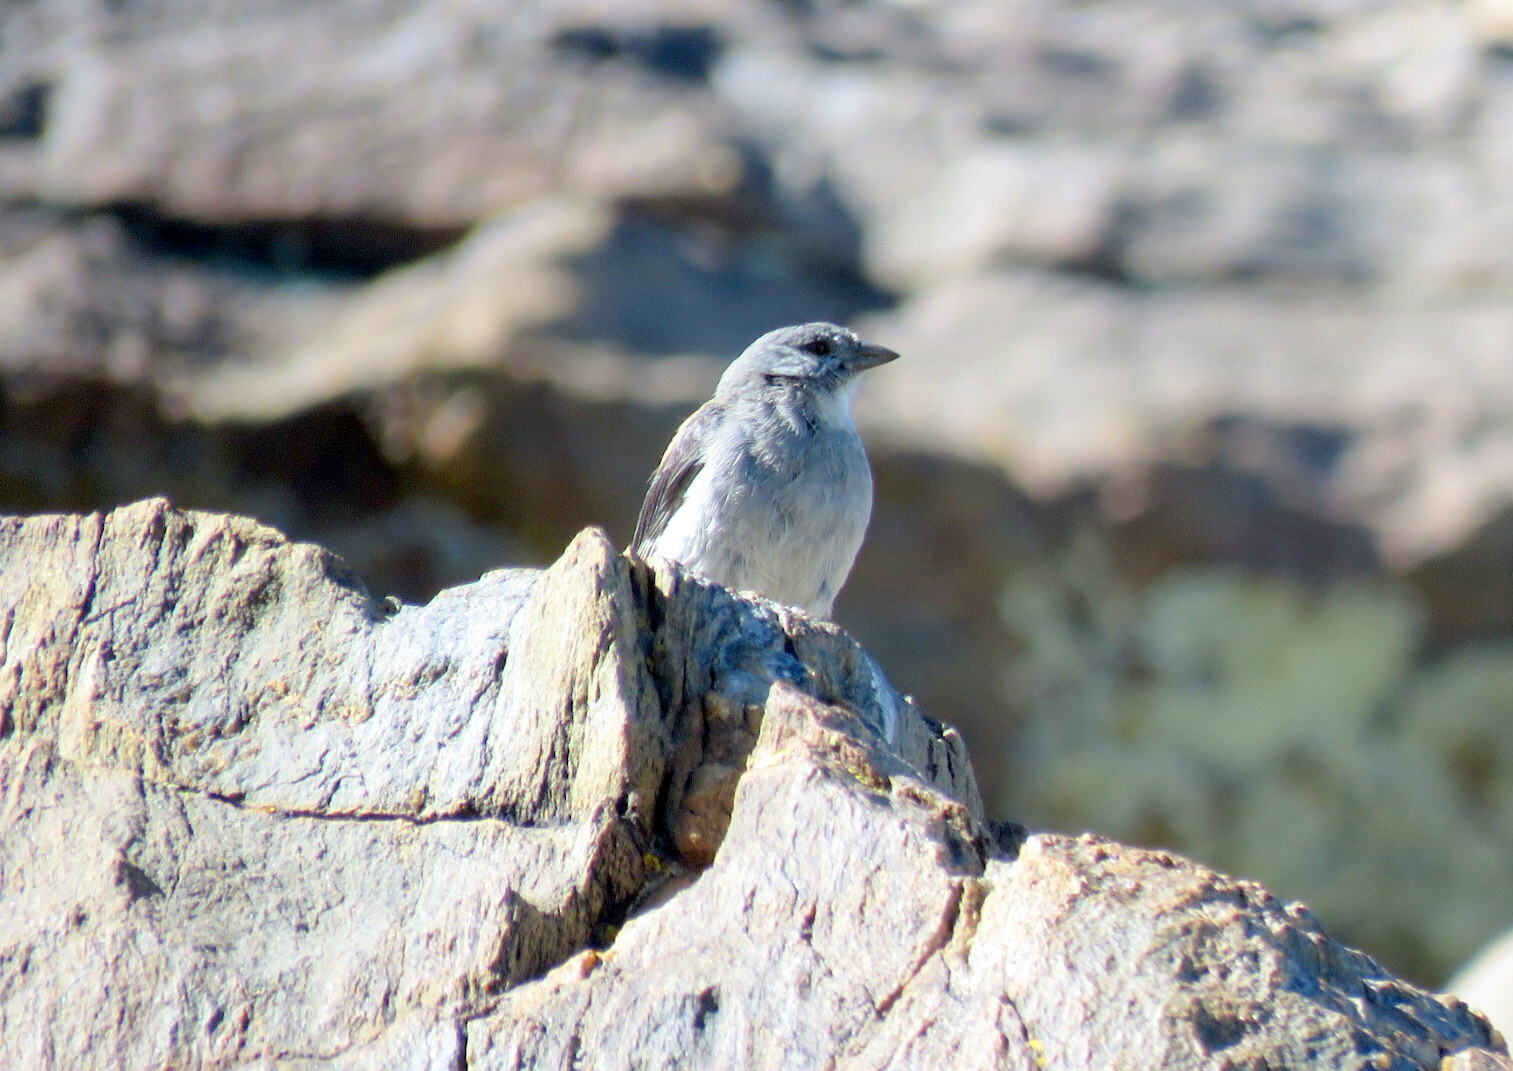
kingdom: Animalia
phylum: Chordata
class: Aves
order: Passeriformes
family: Thraupidae
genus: Idiopsar
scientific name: Idiopsar dorsalis
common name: Red-backed sierra finch
